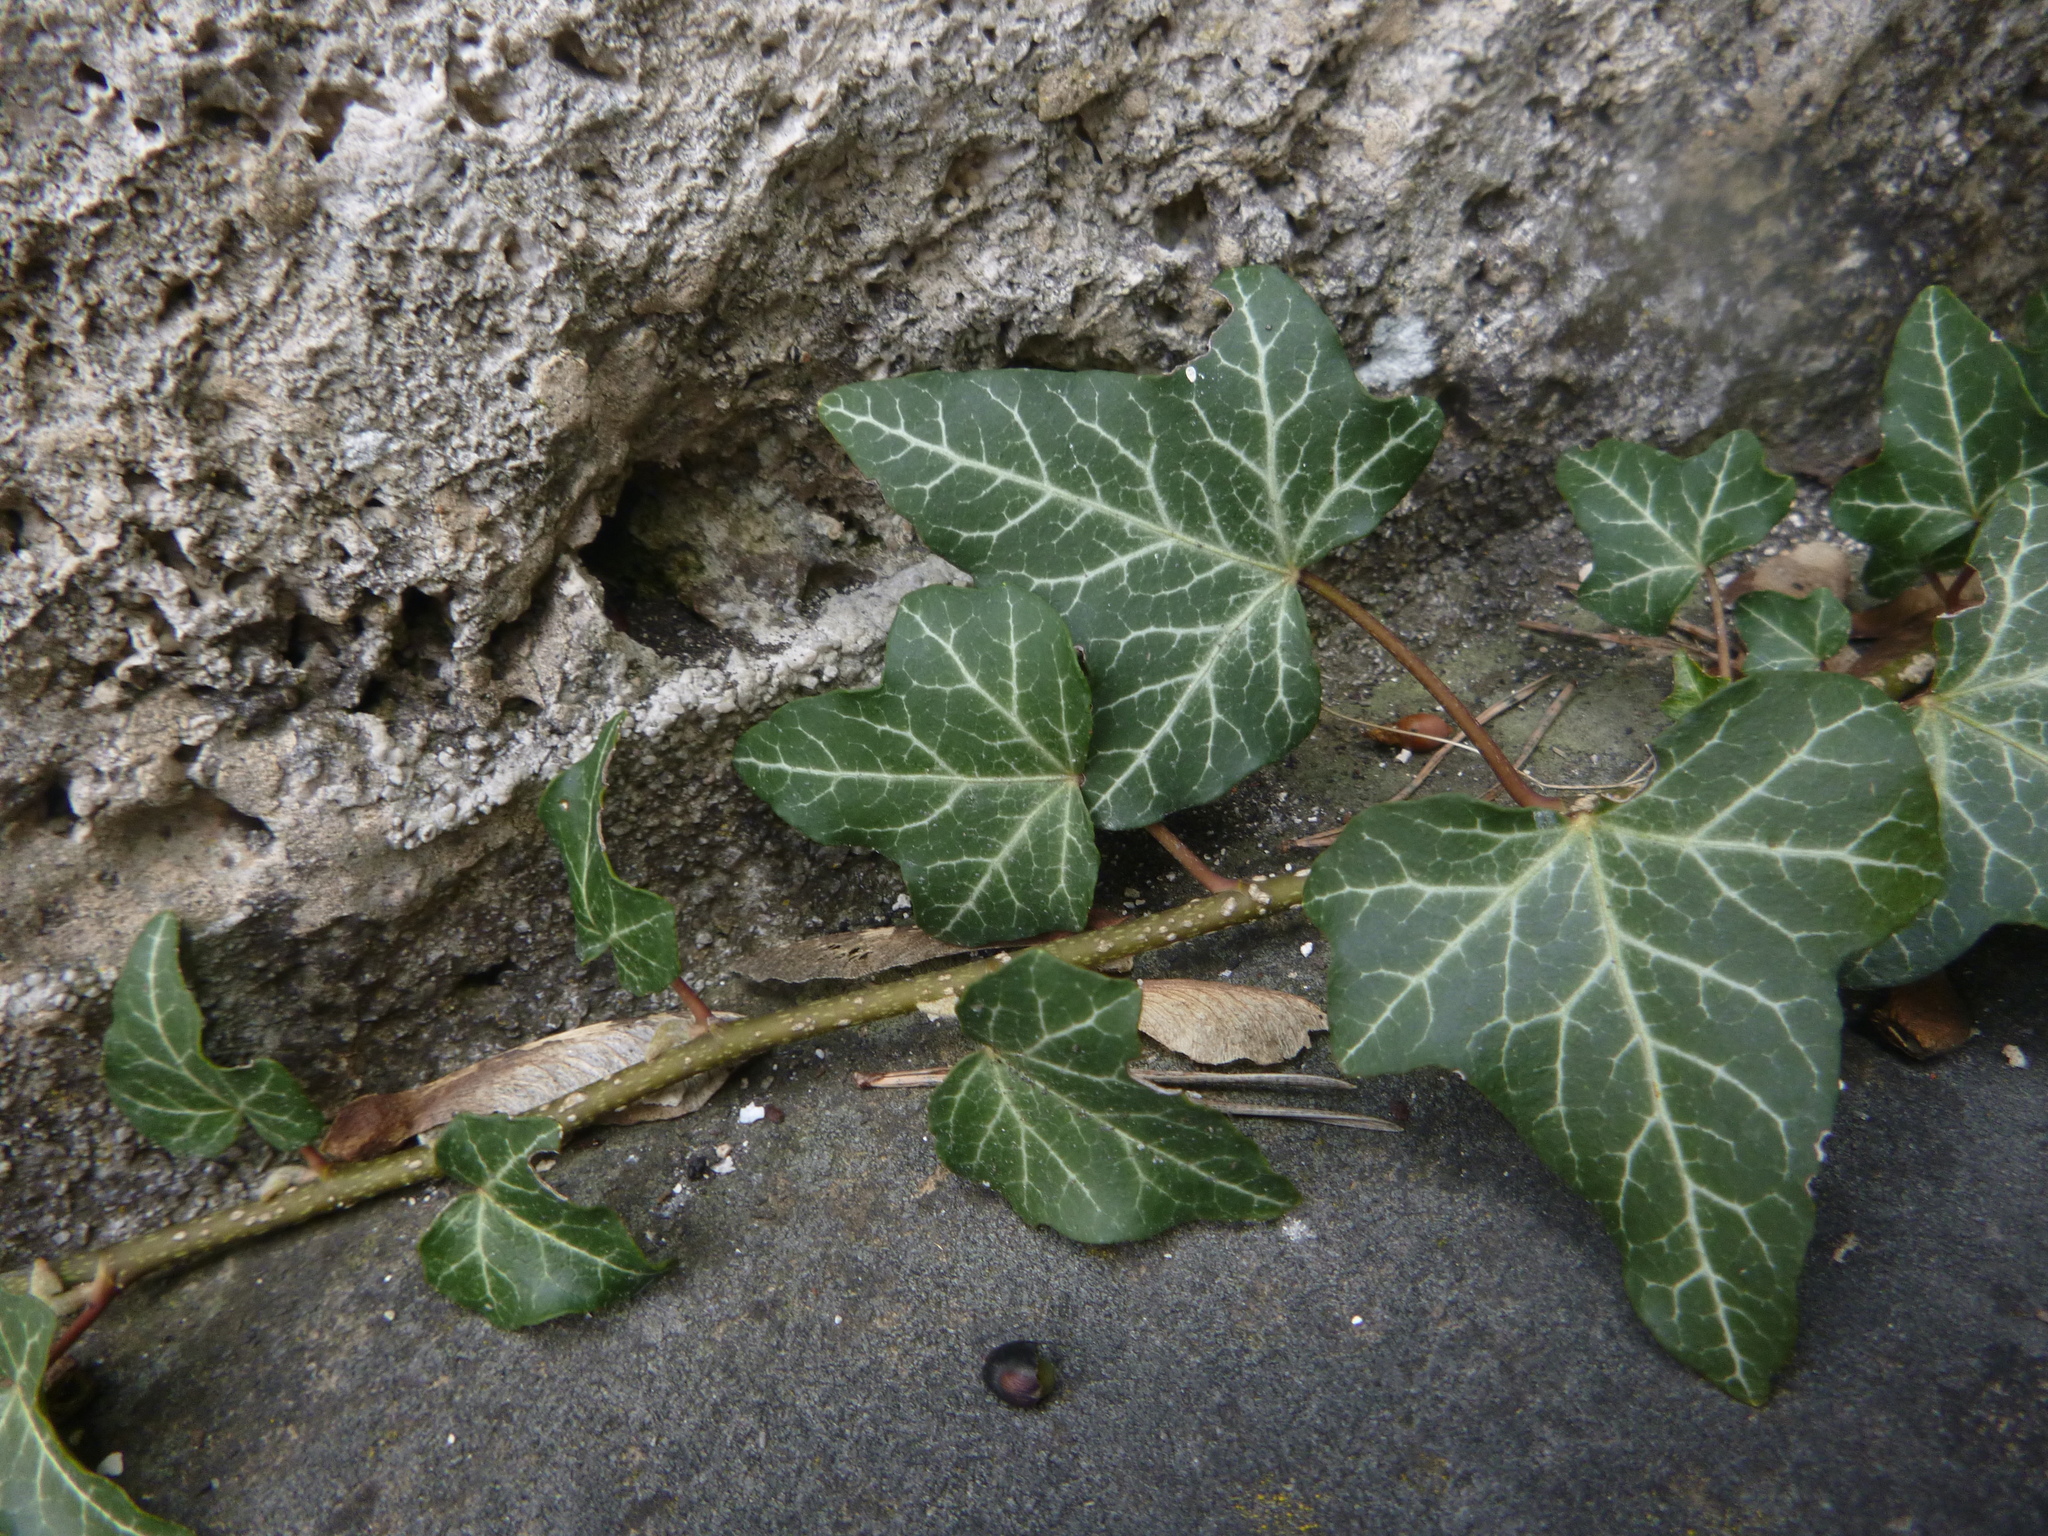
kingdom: Plantae
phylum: Tracheophyta
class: Magnoliopsida
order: Apiales
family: Araliaceae
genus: Hedera
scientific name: Hedera helix
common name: Ivy
